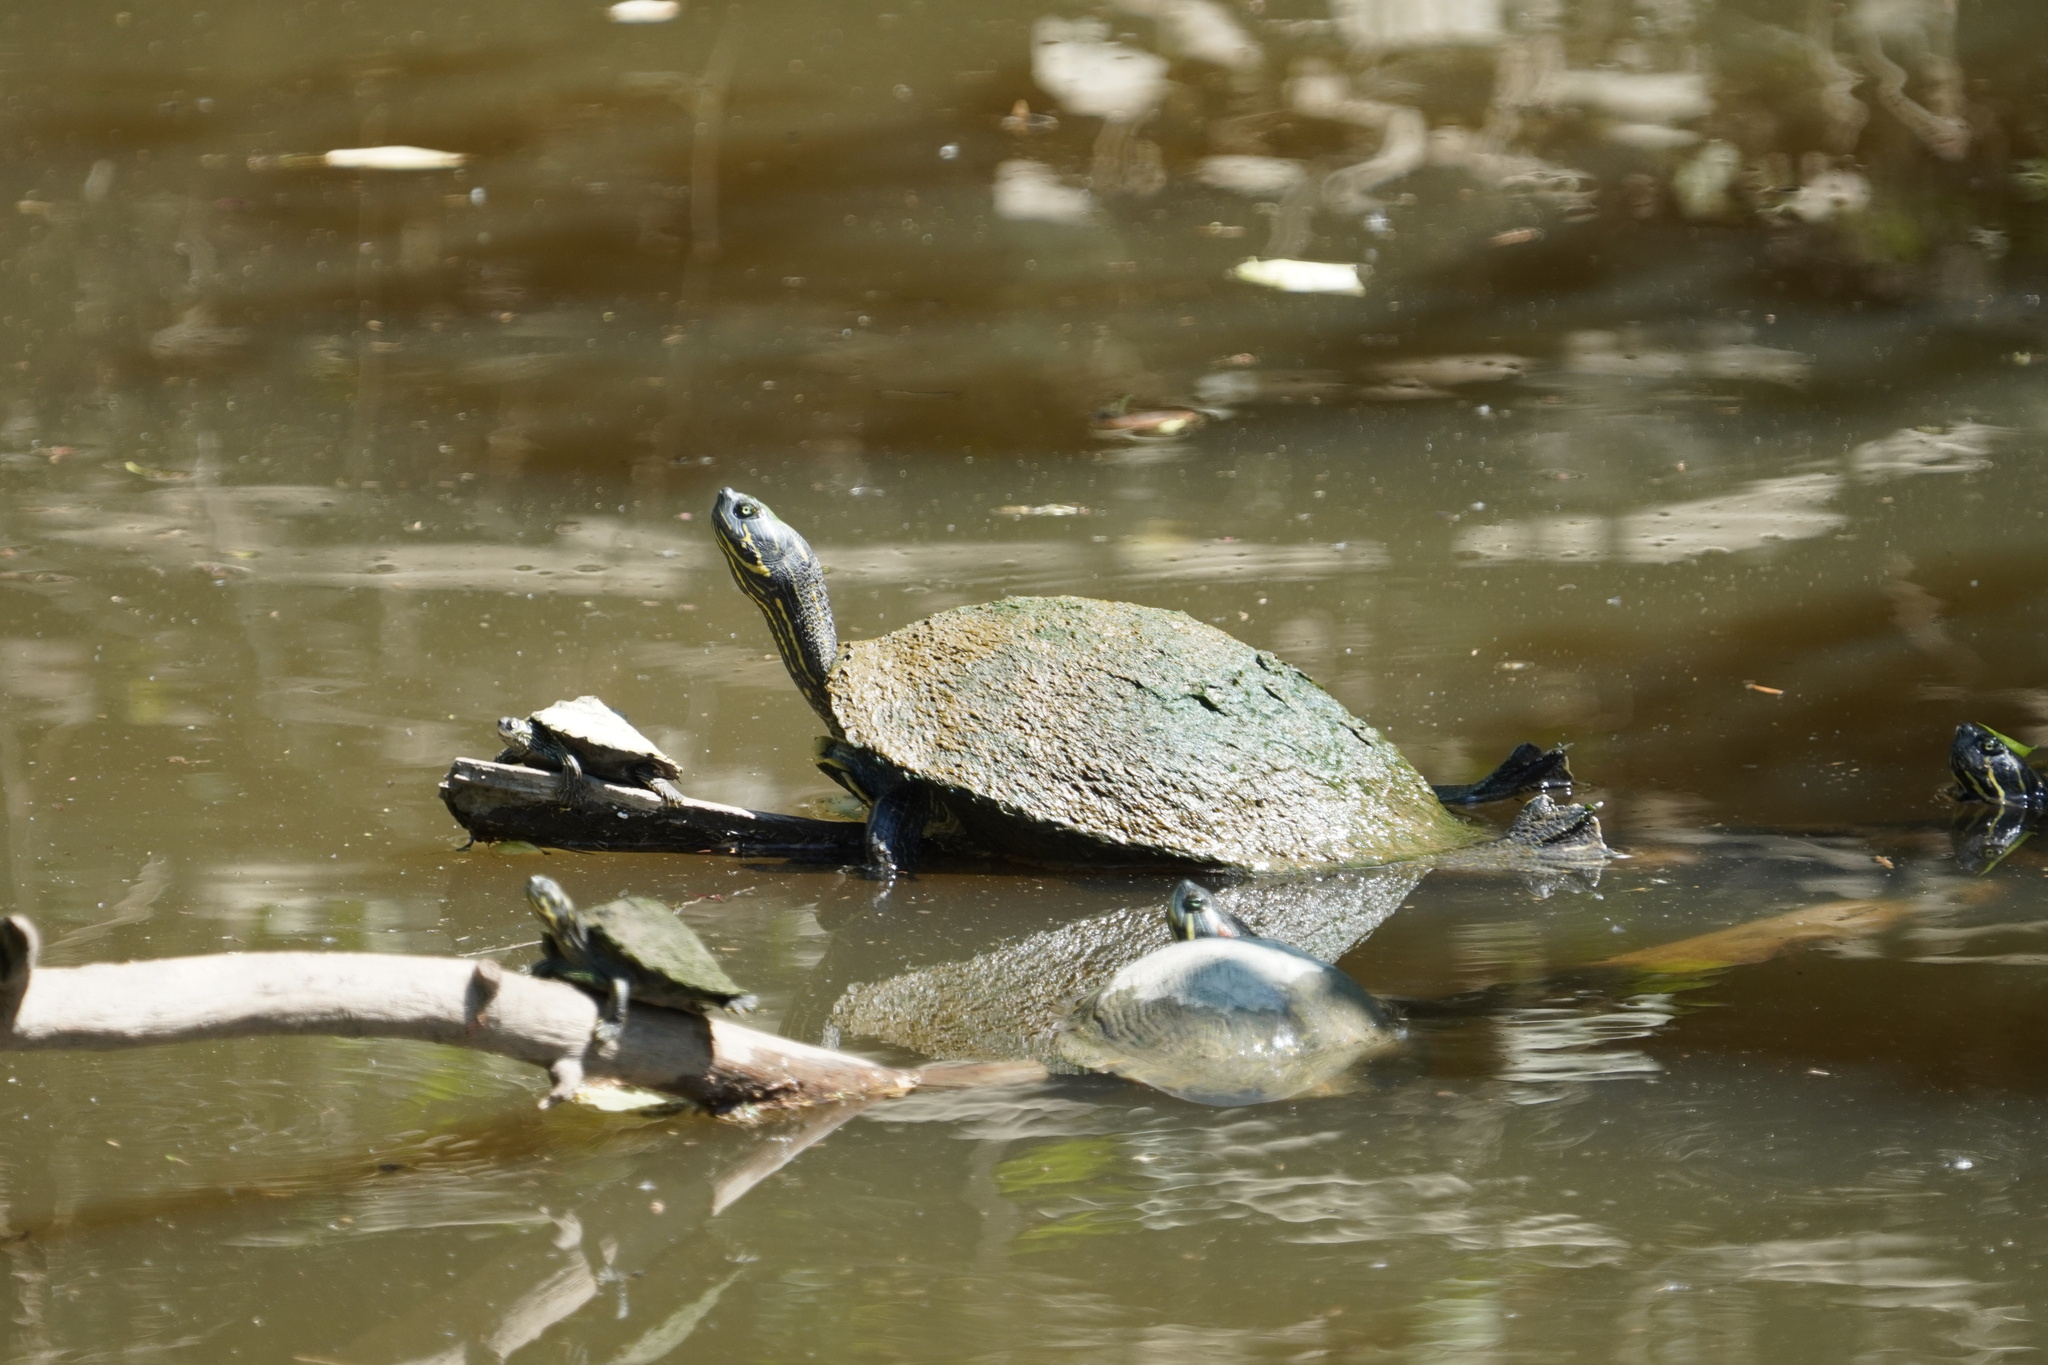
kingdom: Animalia
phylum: Chordata
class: Testudines
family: Emydidae
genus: Pseudemys
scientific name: Pseudemys concinna
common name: Eastern river cooter
